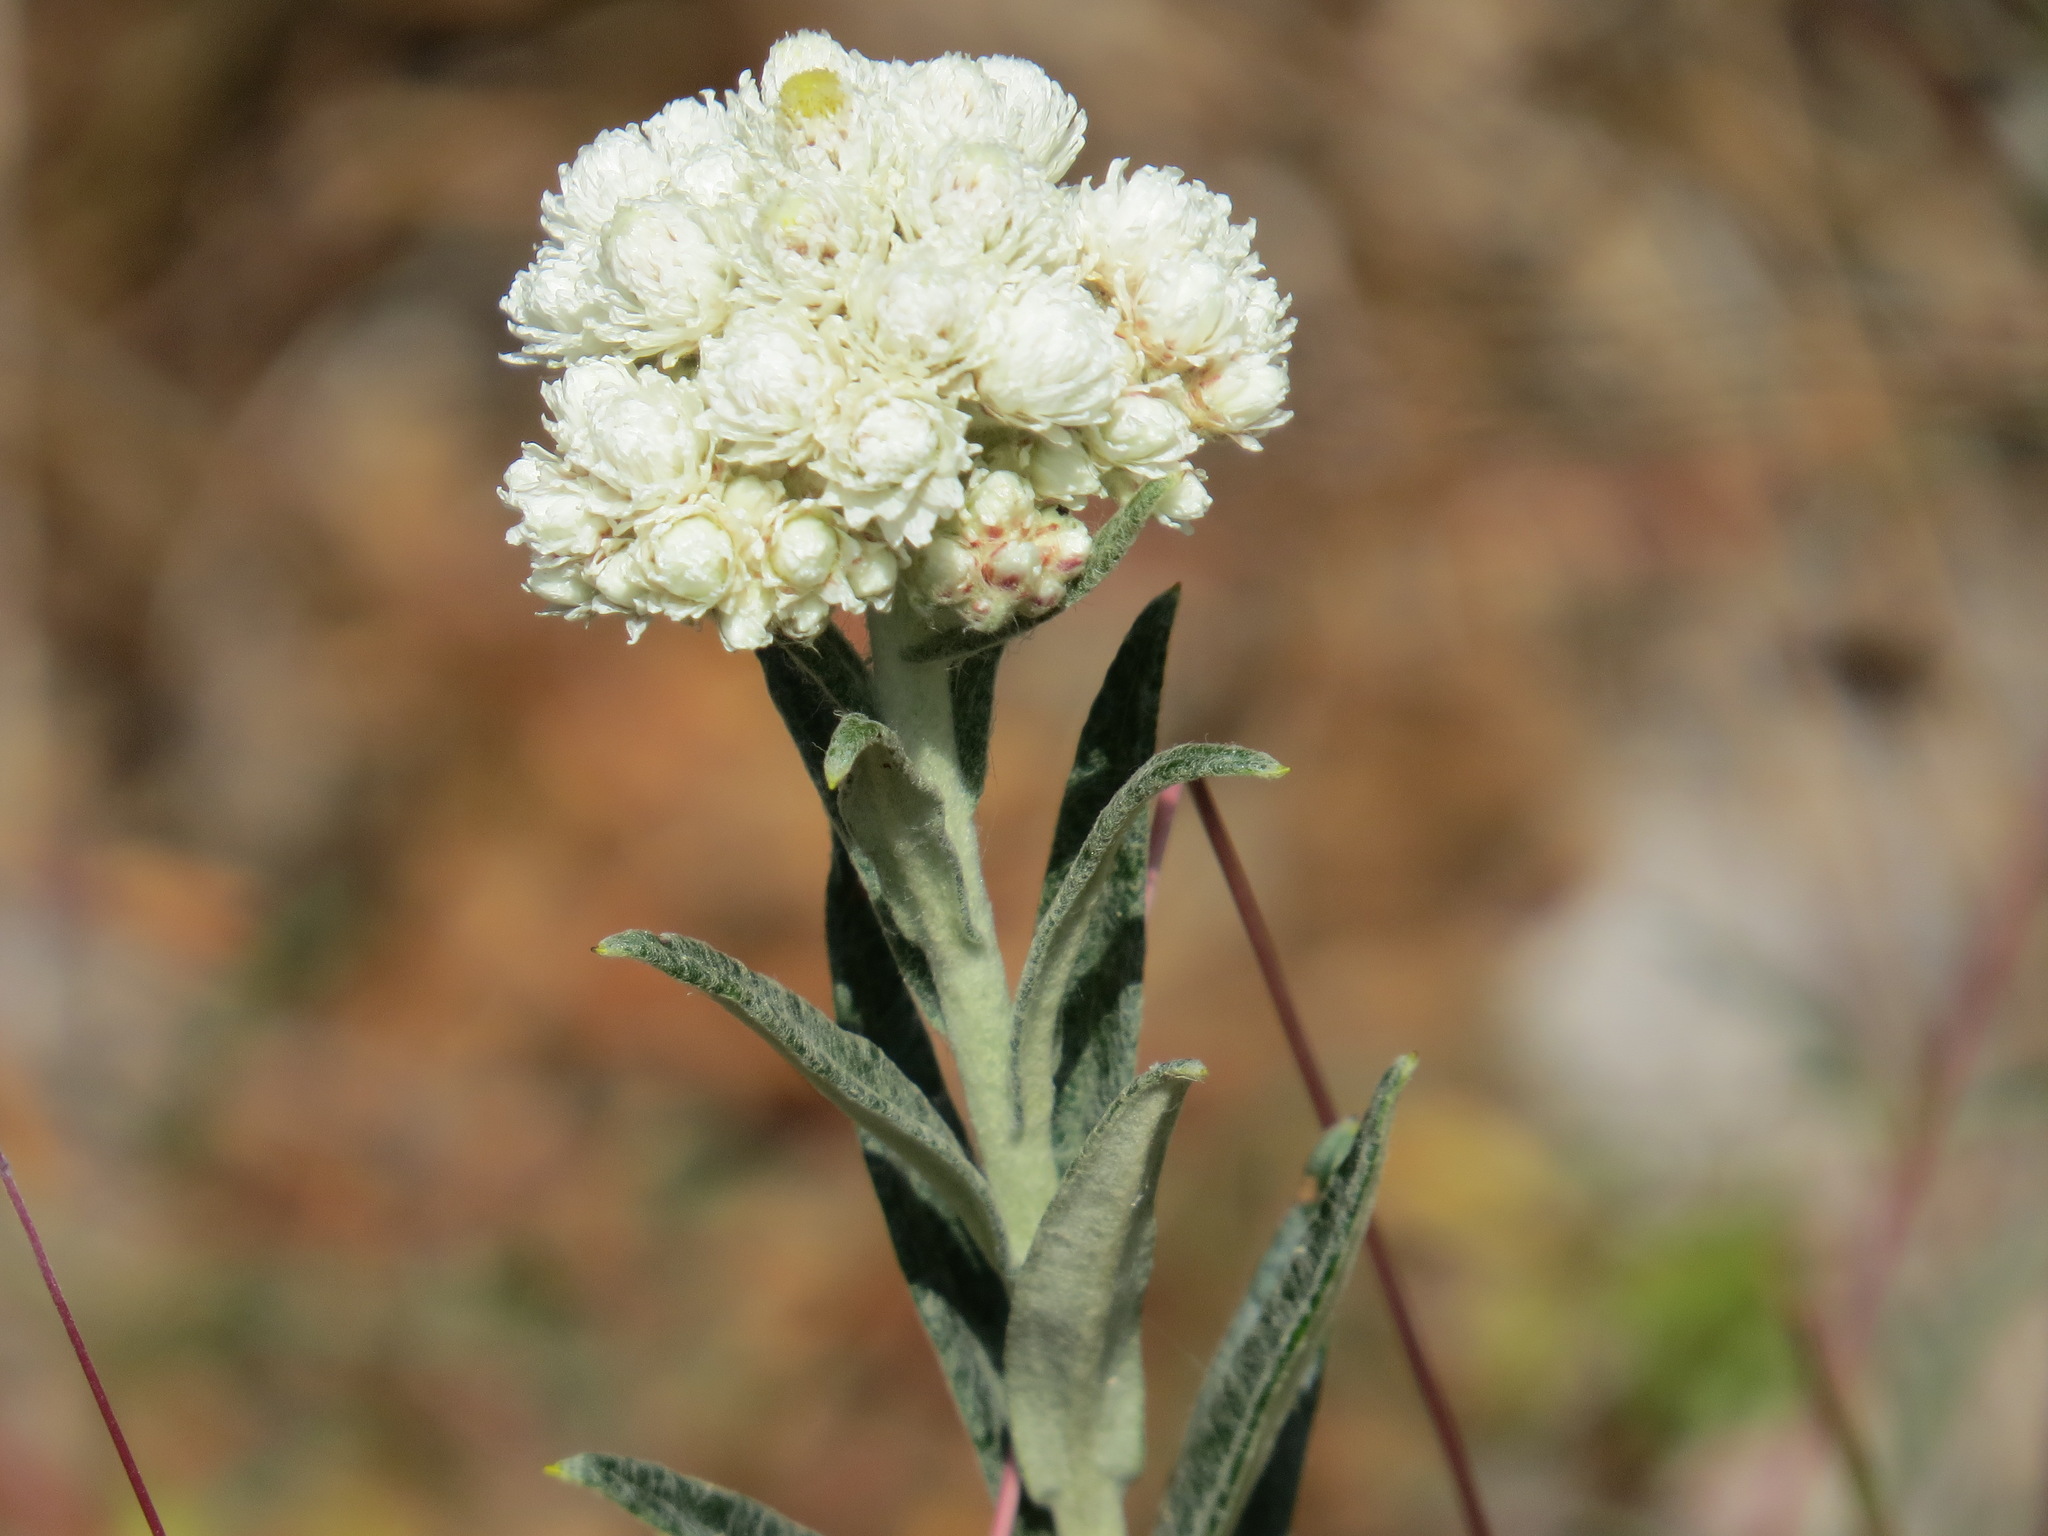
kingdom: Plantae
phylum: Tracheophyta
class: Magnoliopsida
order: Asterales
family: Asteraceae
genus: Anaphalis
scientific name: Anaphalis margaritacea
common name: Pearly everlasting
